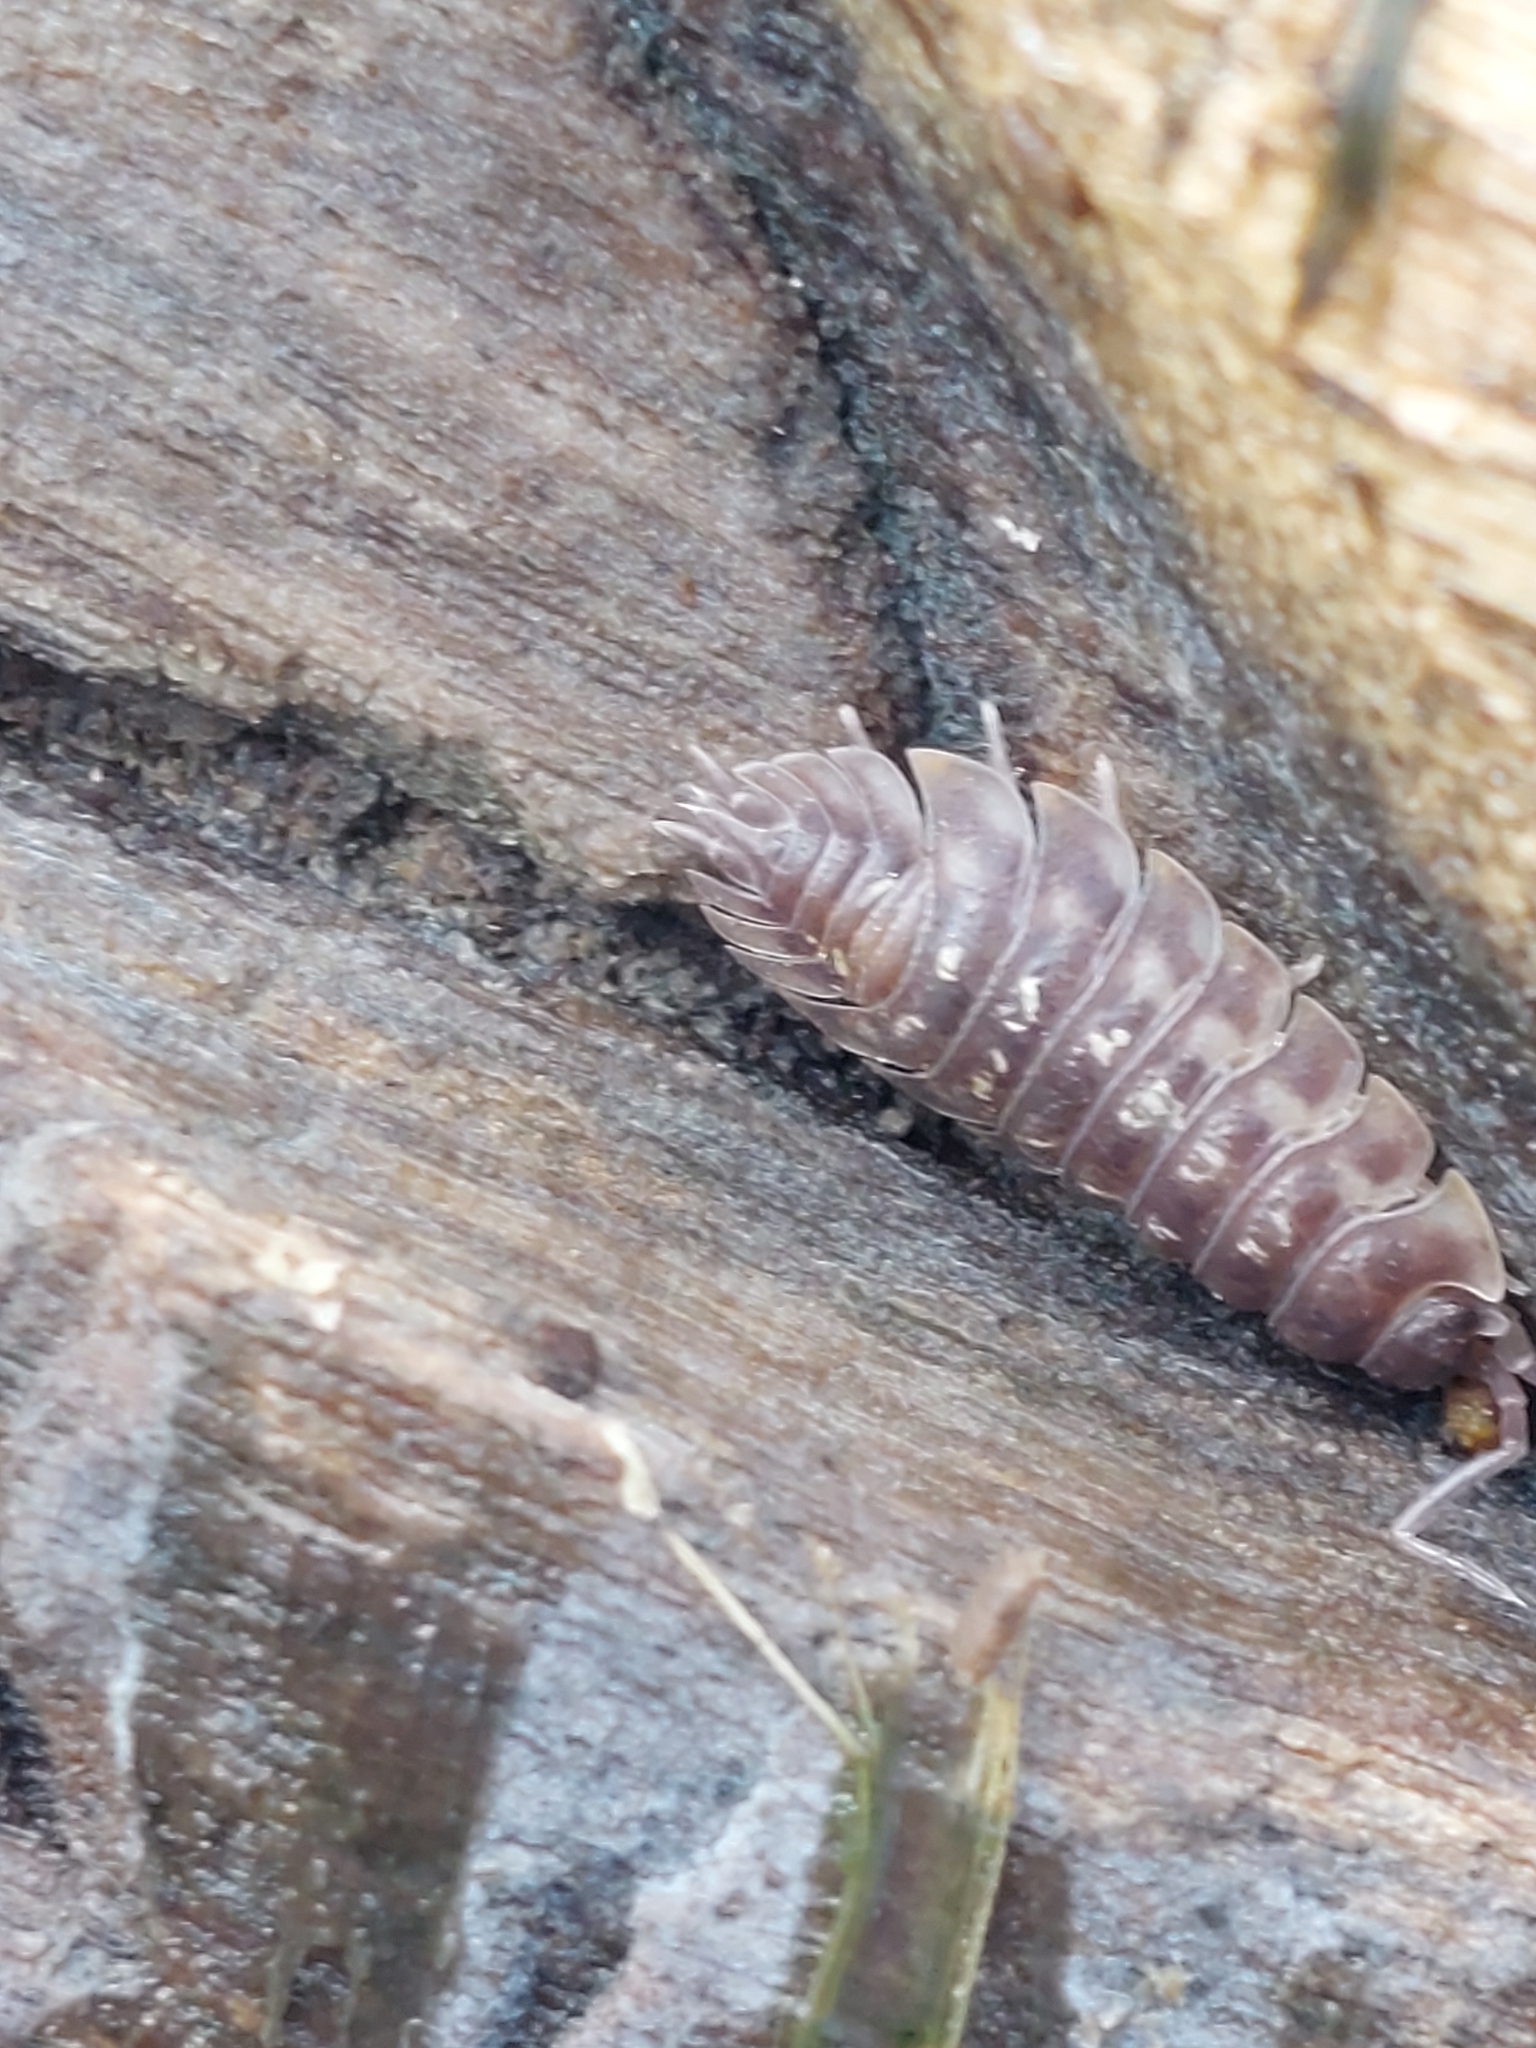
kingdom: Animalia
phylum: Arthropoda
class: Malacostraca
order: Isopoda
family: Oniscidae
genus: Oniscus
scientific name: Oniscus asellus
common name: Common shiny woodlouse
